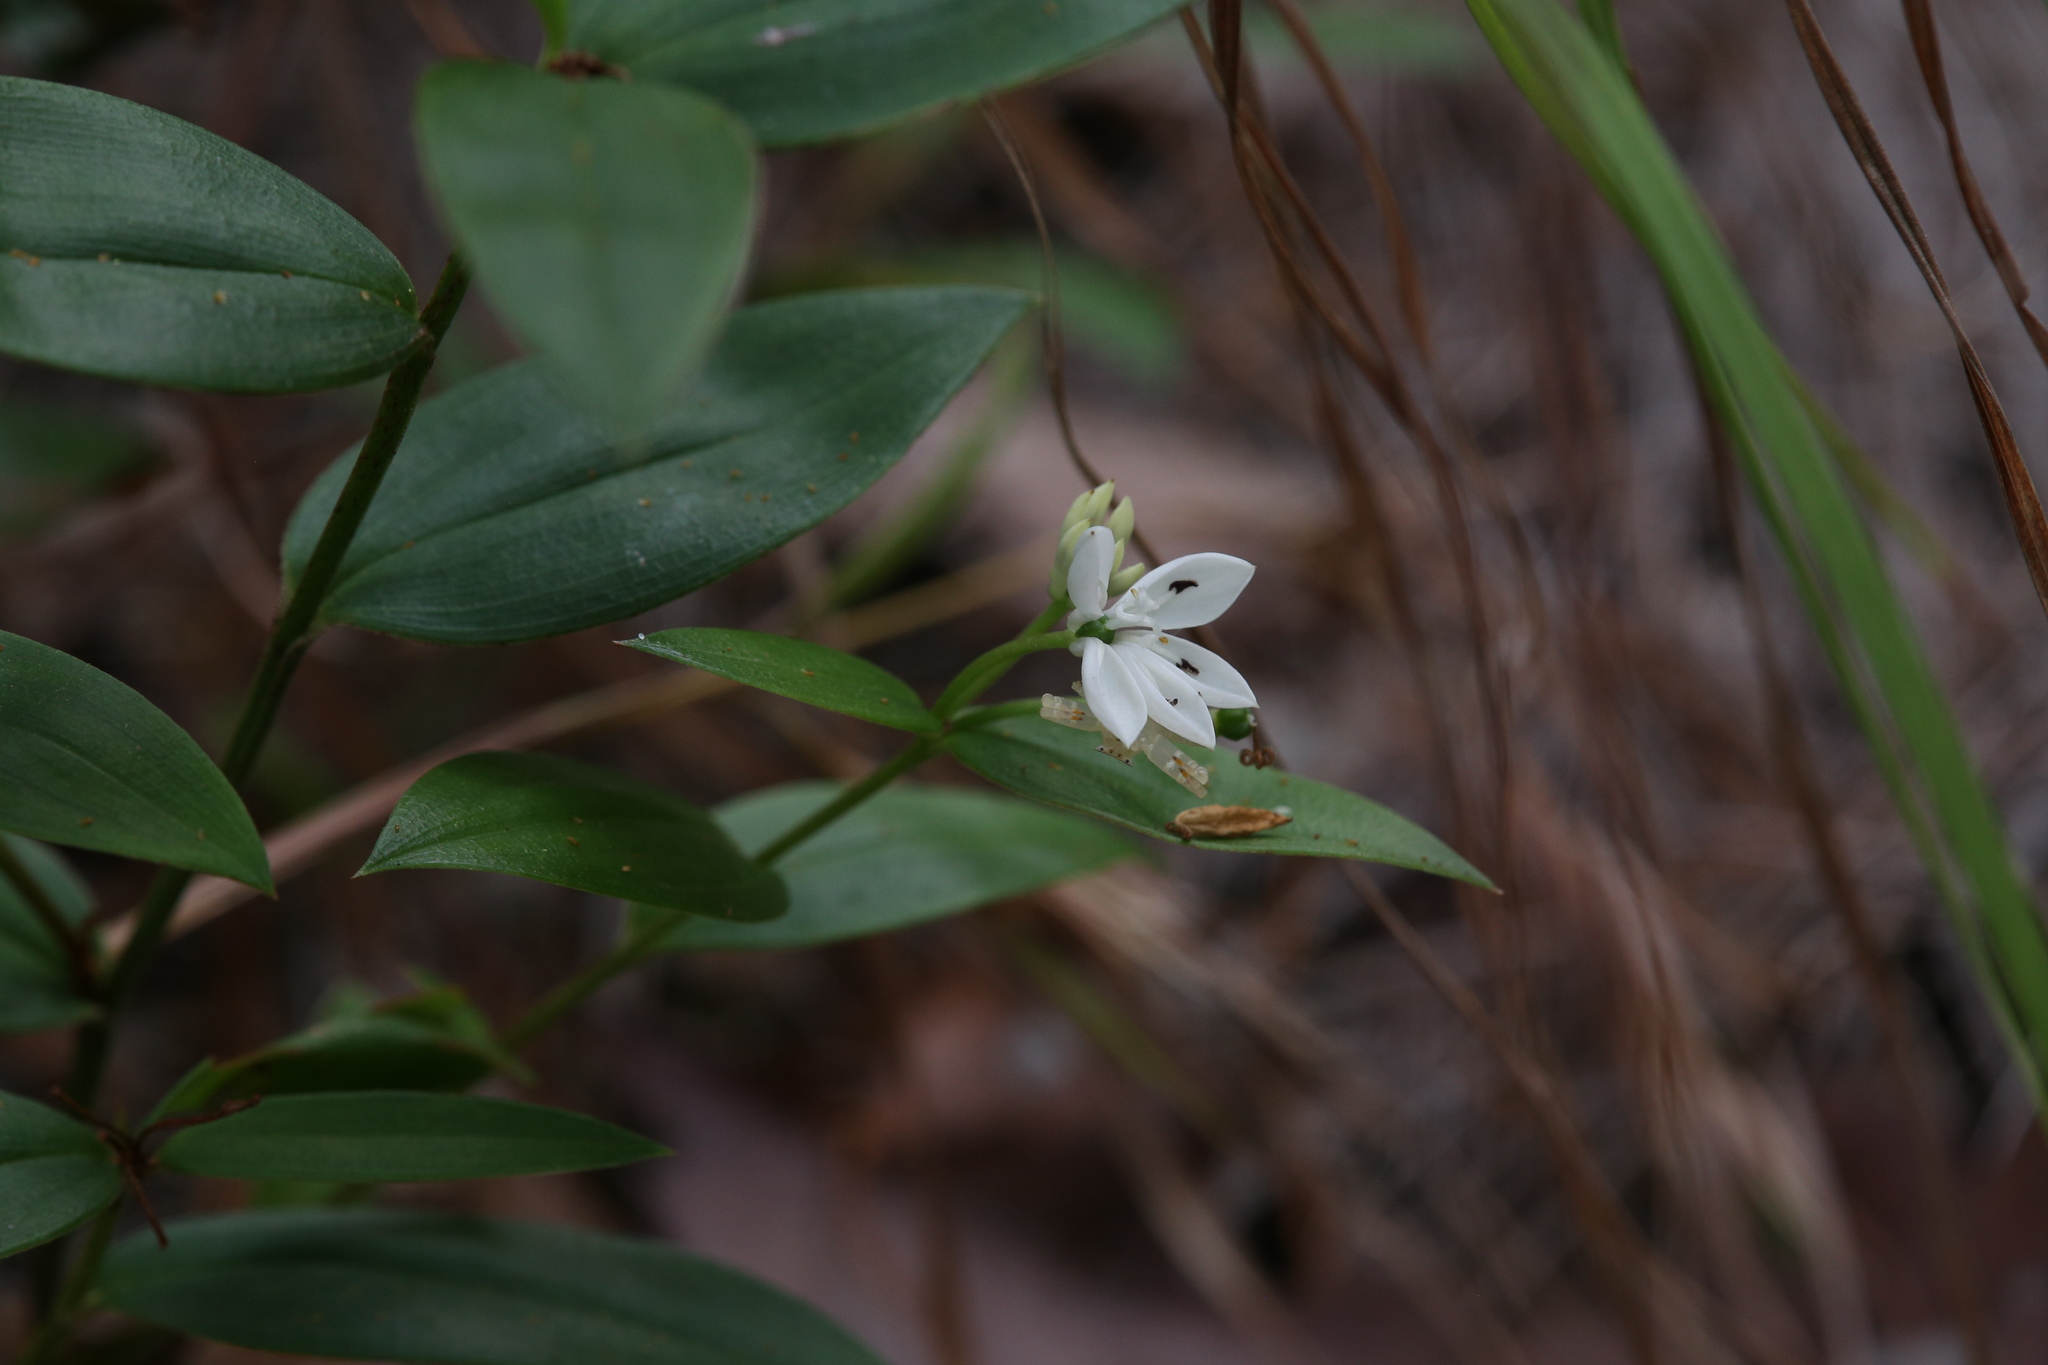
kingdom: Plantae
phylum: Tracheophyta
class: Liliopsida
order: Liliales
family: Colchicaceae
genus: Schelhammera
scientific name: Schelhammera multiflora
